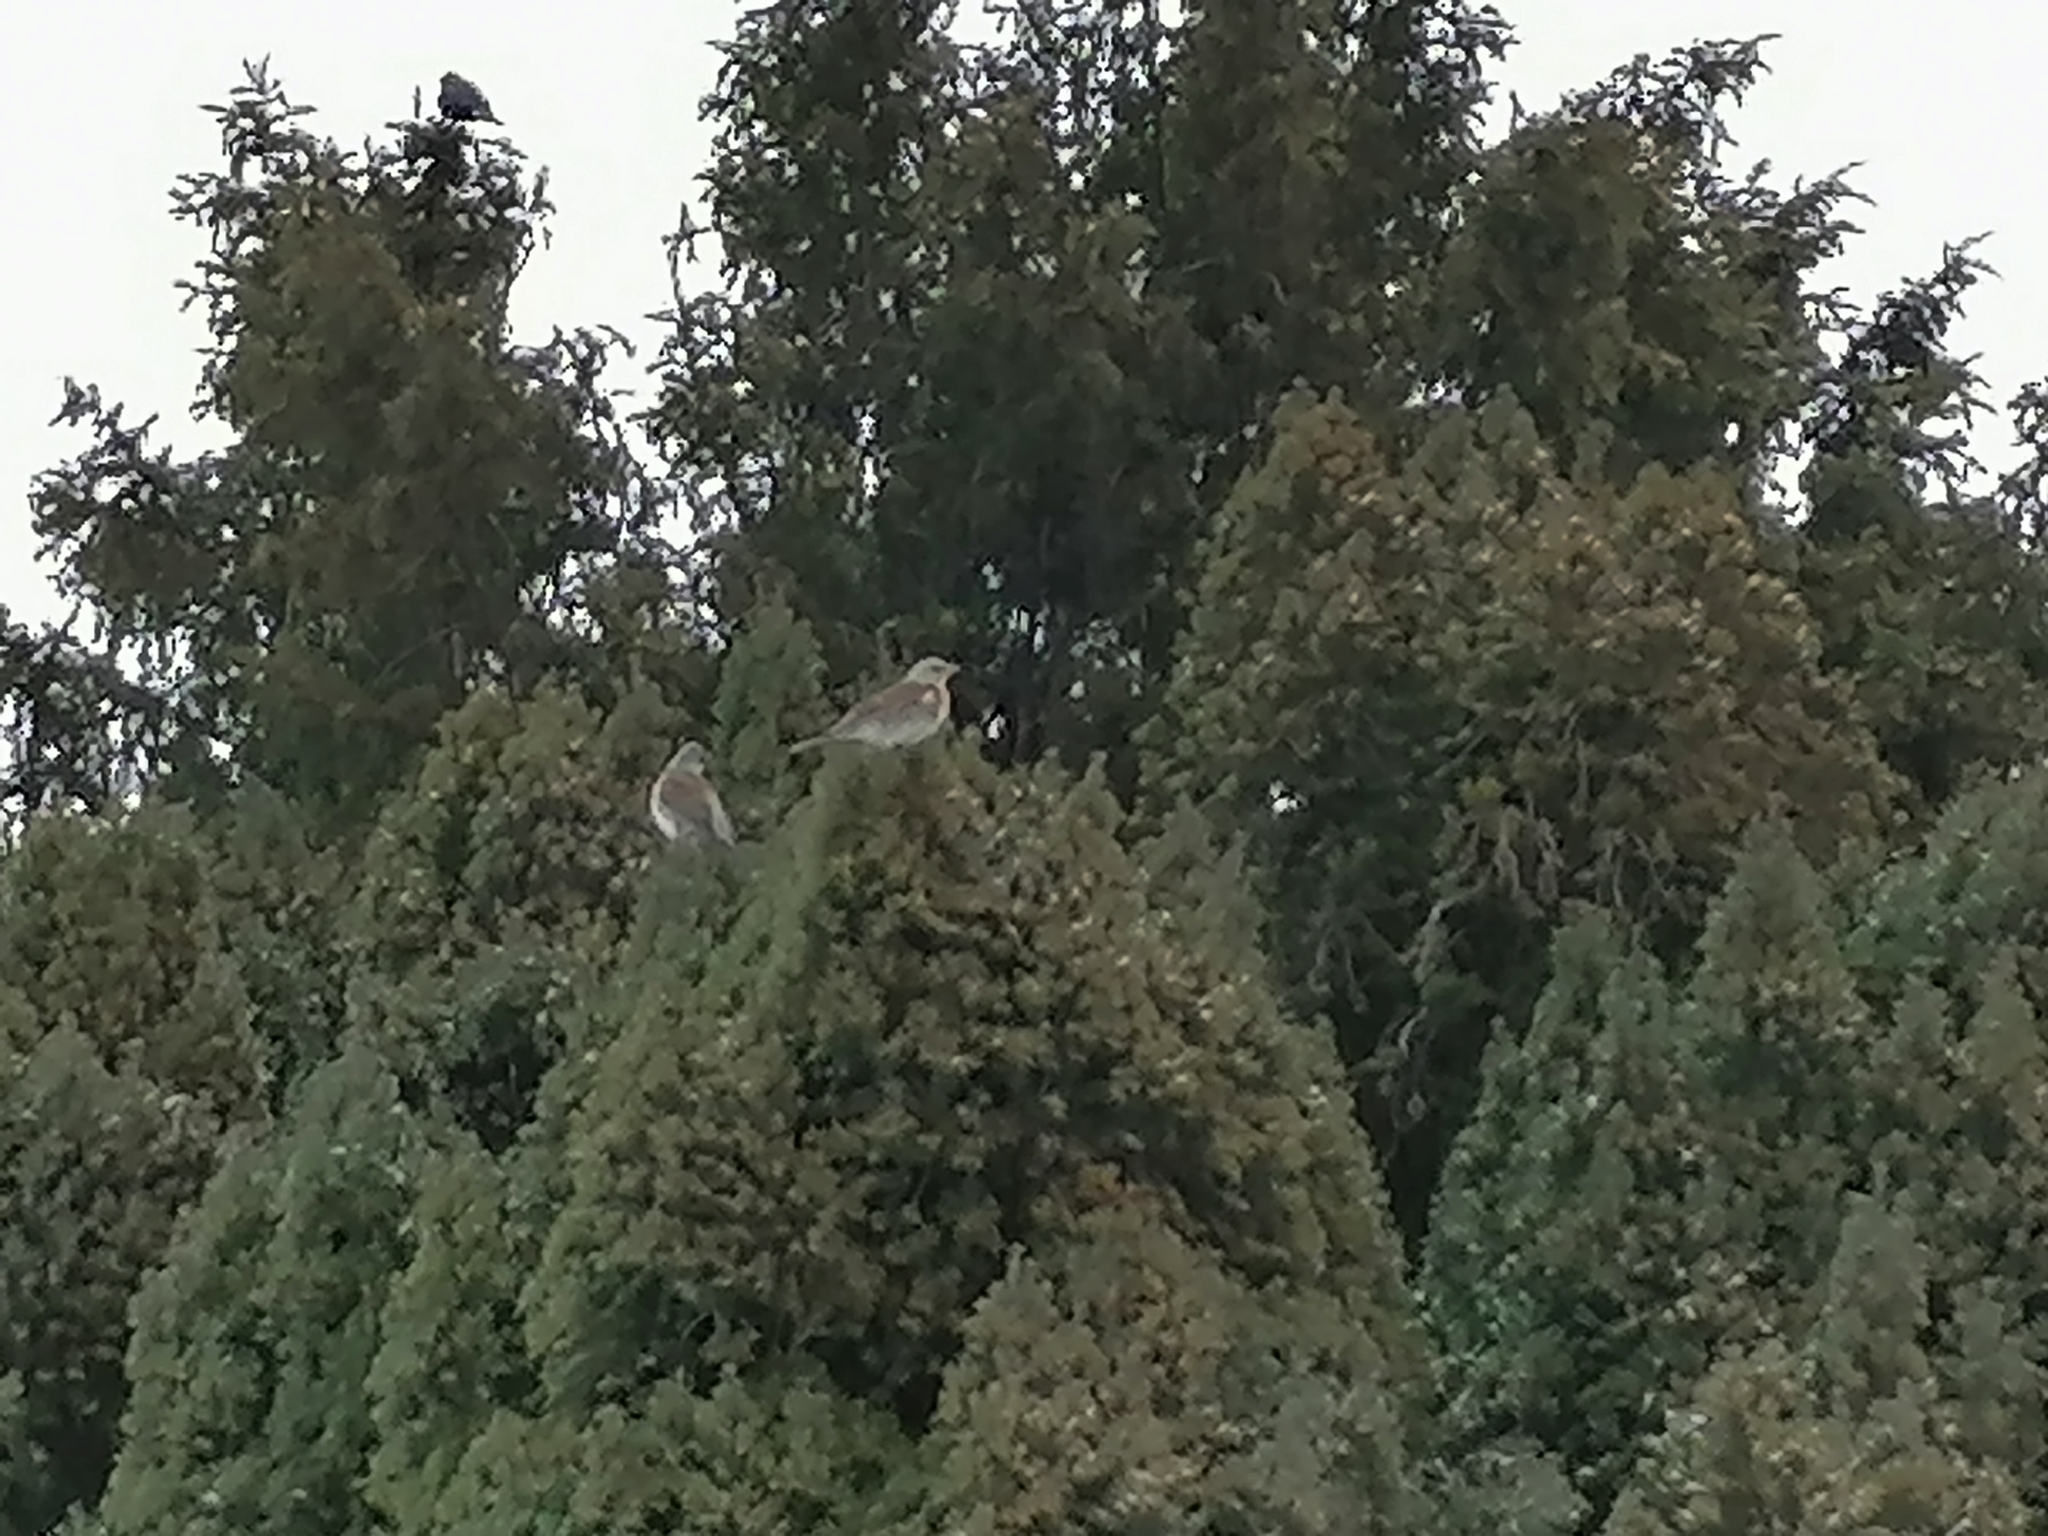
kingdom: Animalia
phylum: Chordata
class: Aves
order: Passeriformes
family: Turdidae
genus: Turdus
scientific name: Turdus pilaris
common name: Fieldfare
